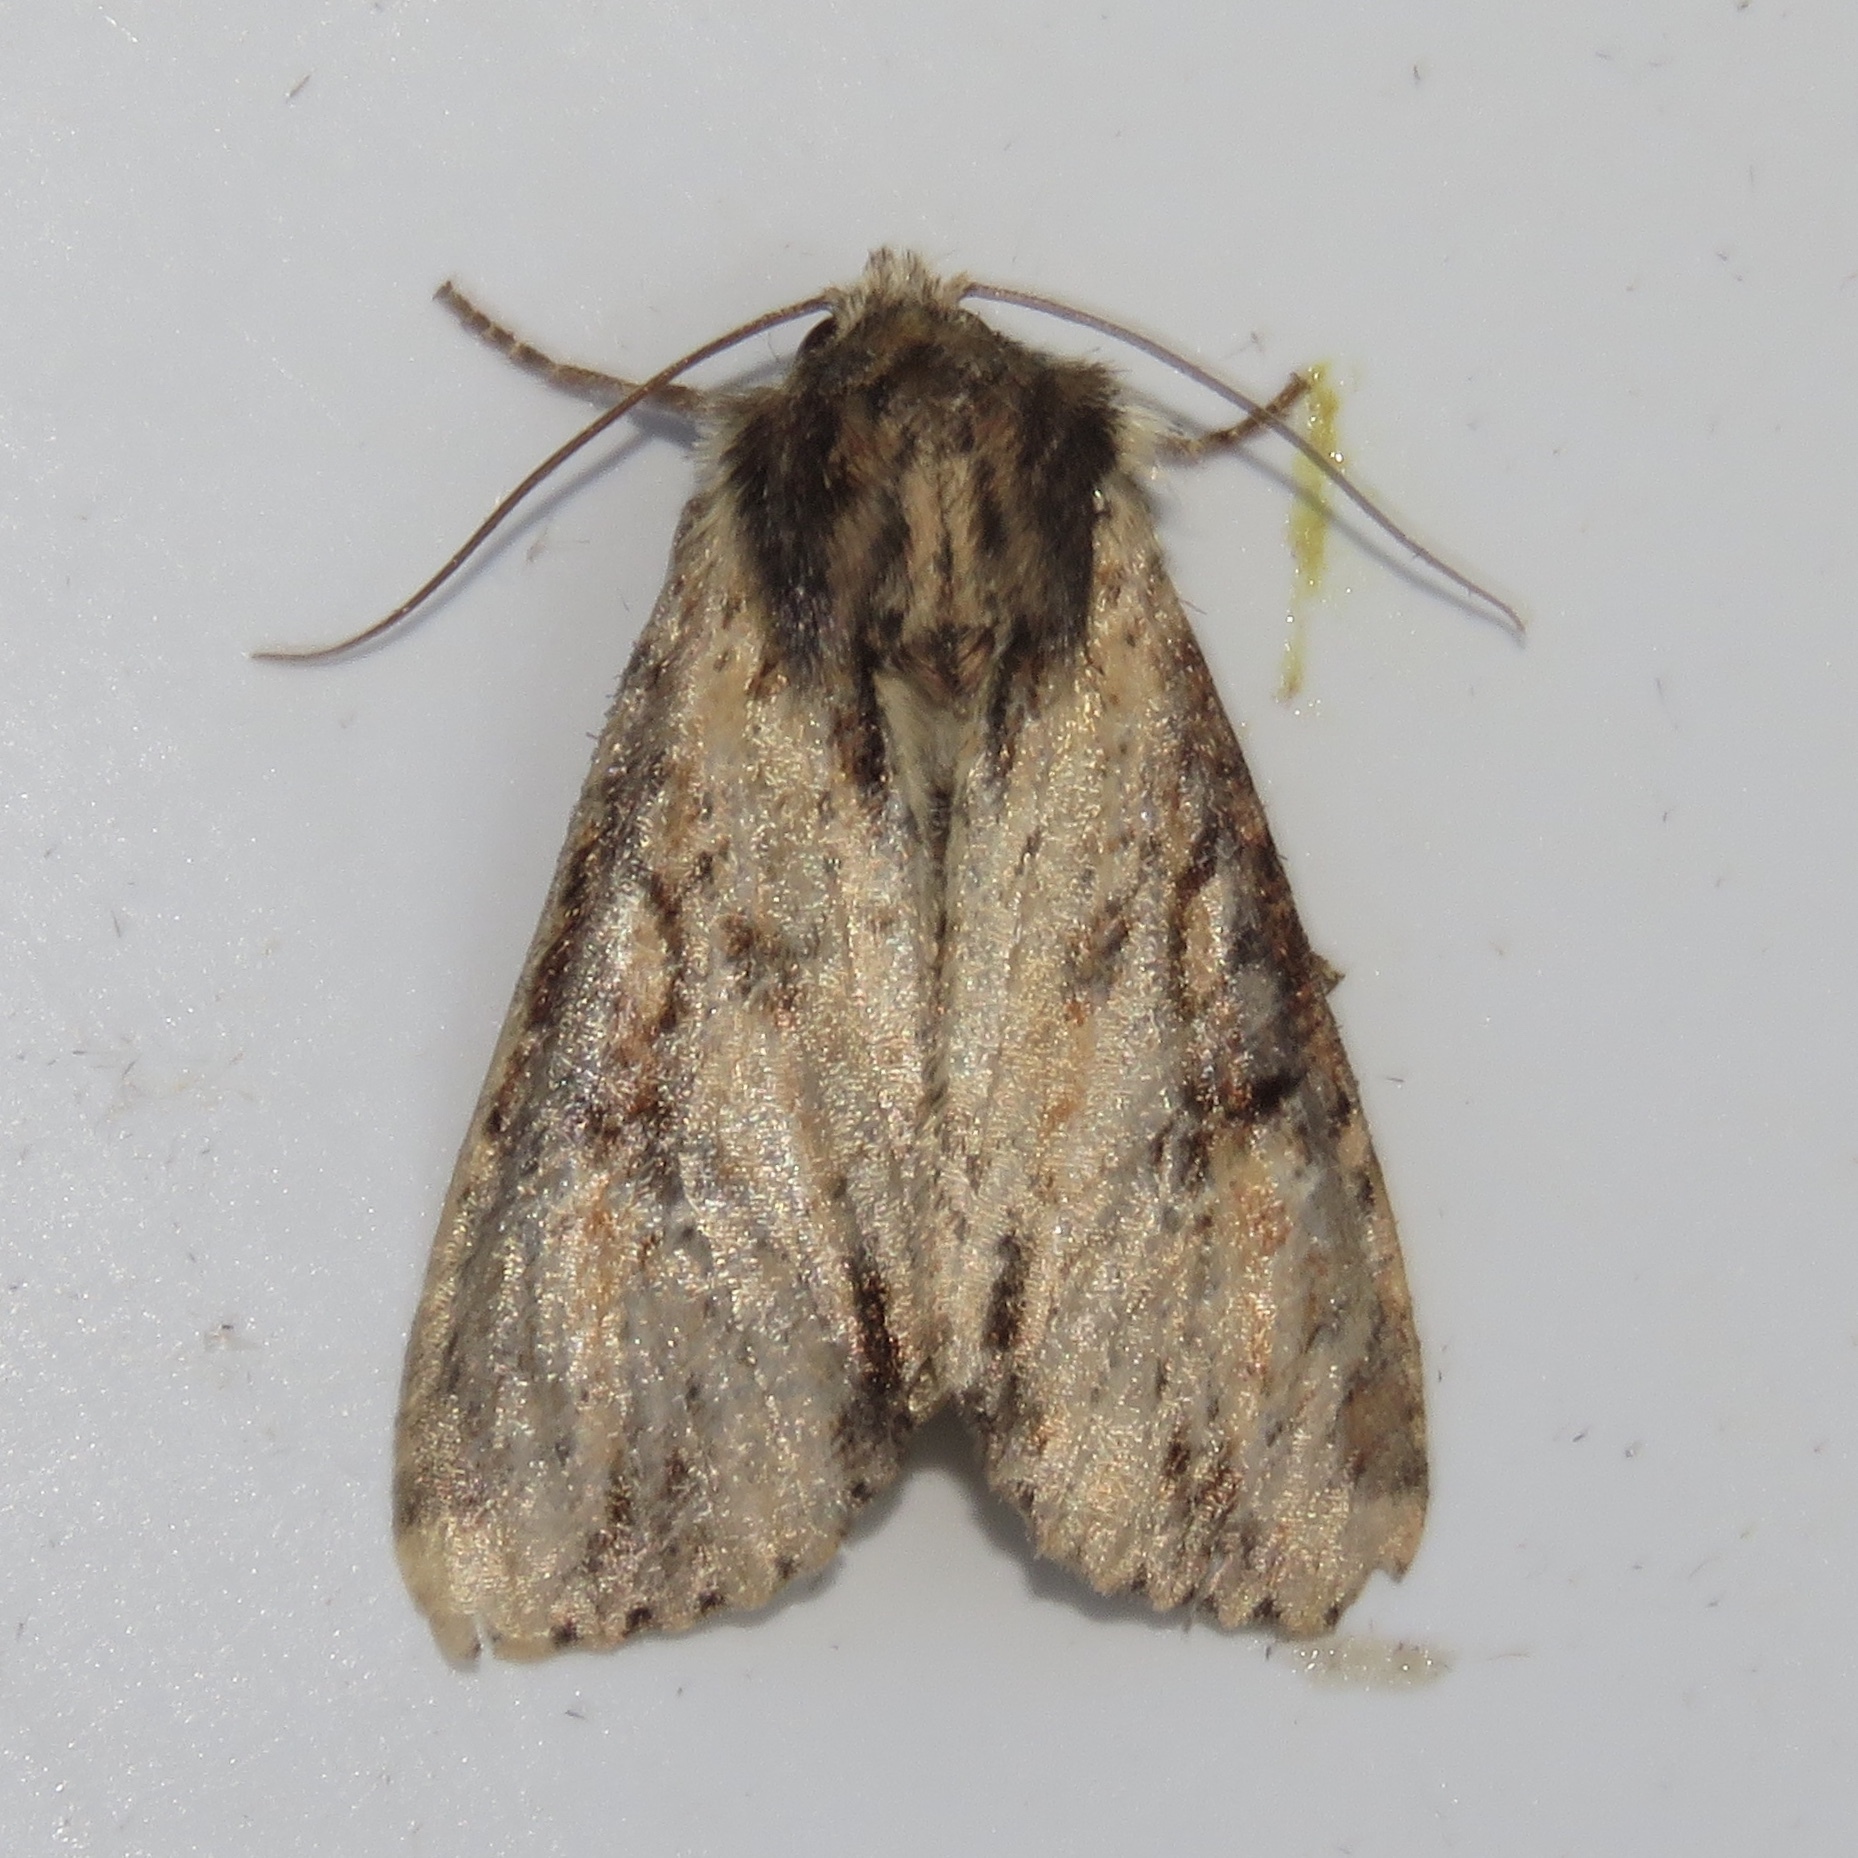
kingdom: Animalia
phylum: Arthropoda
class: Insecta
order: Lepidoptera
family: Noctuidae
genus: Apamea
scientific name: Apamea vultuosa
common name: Airy apamea moth
